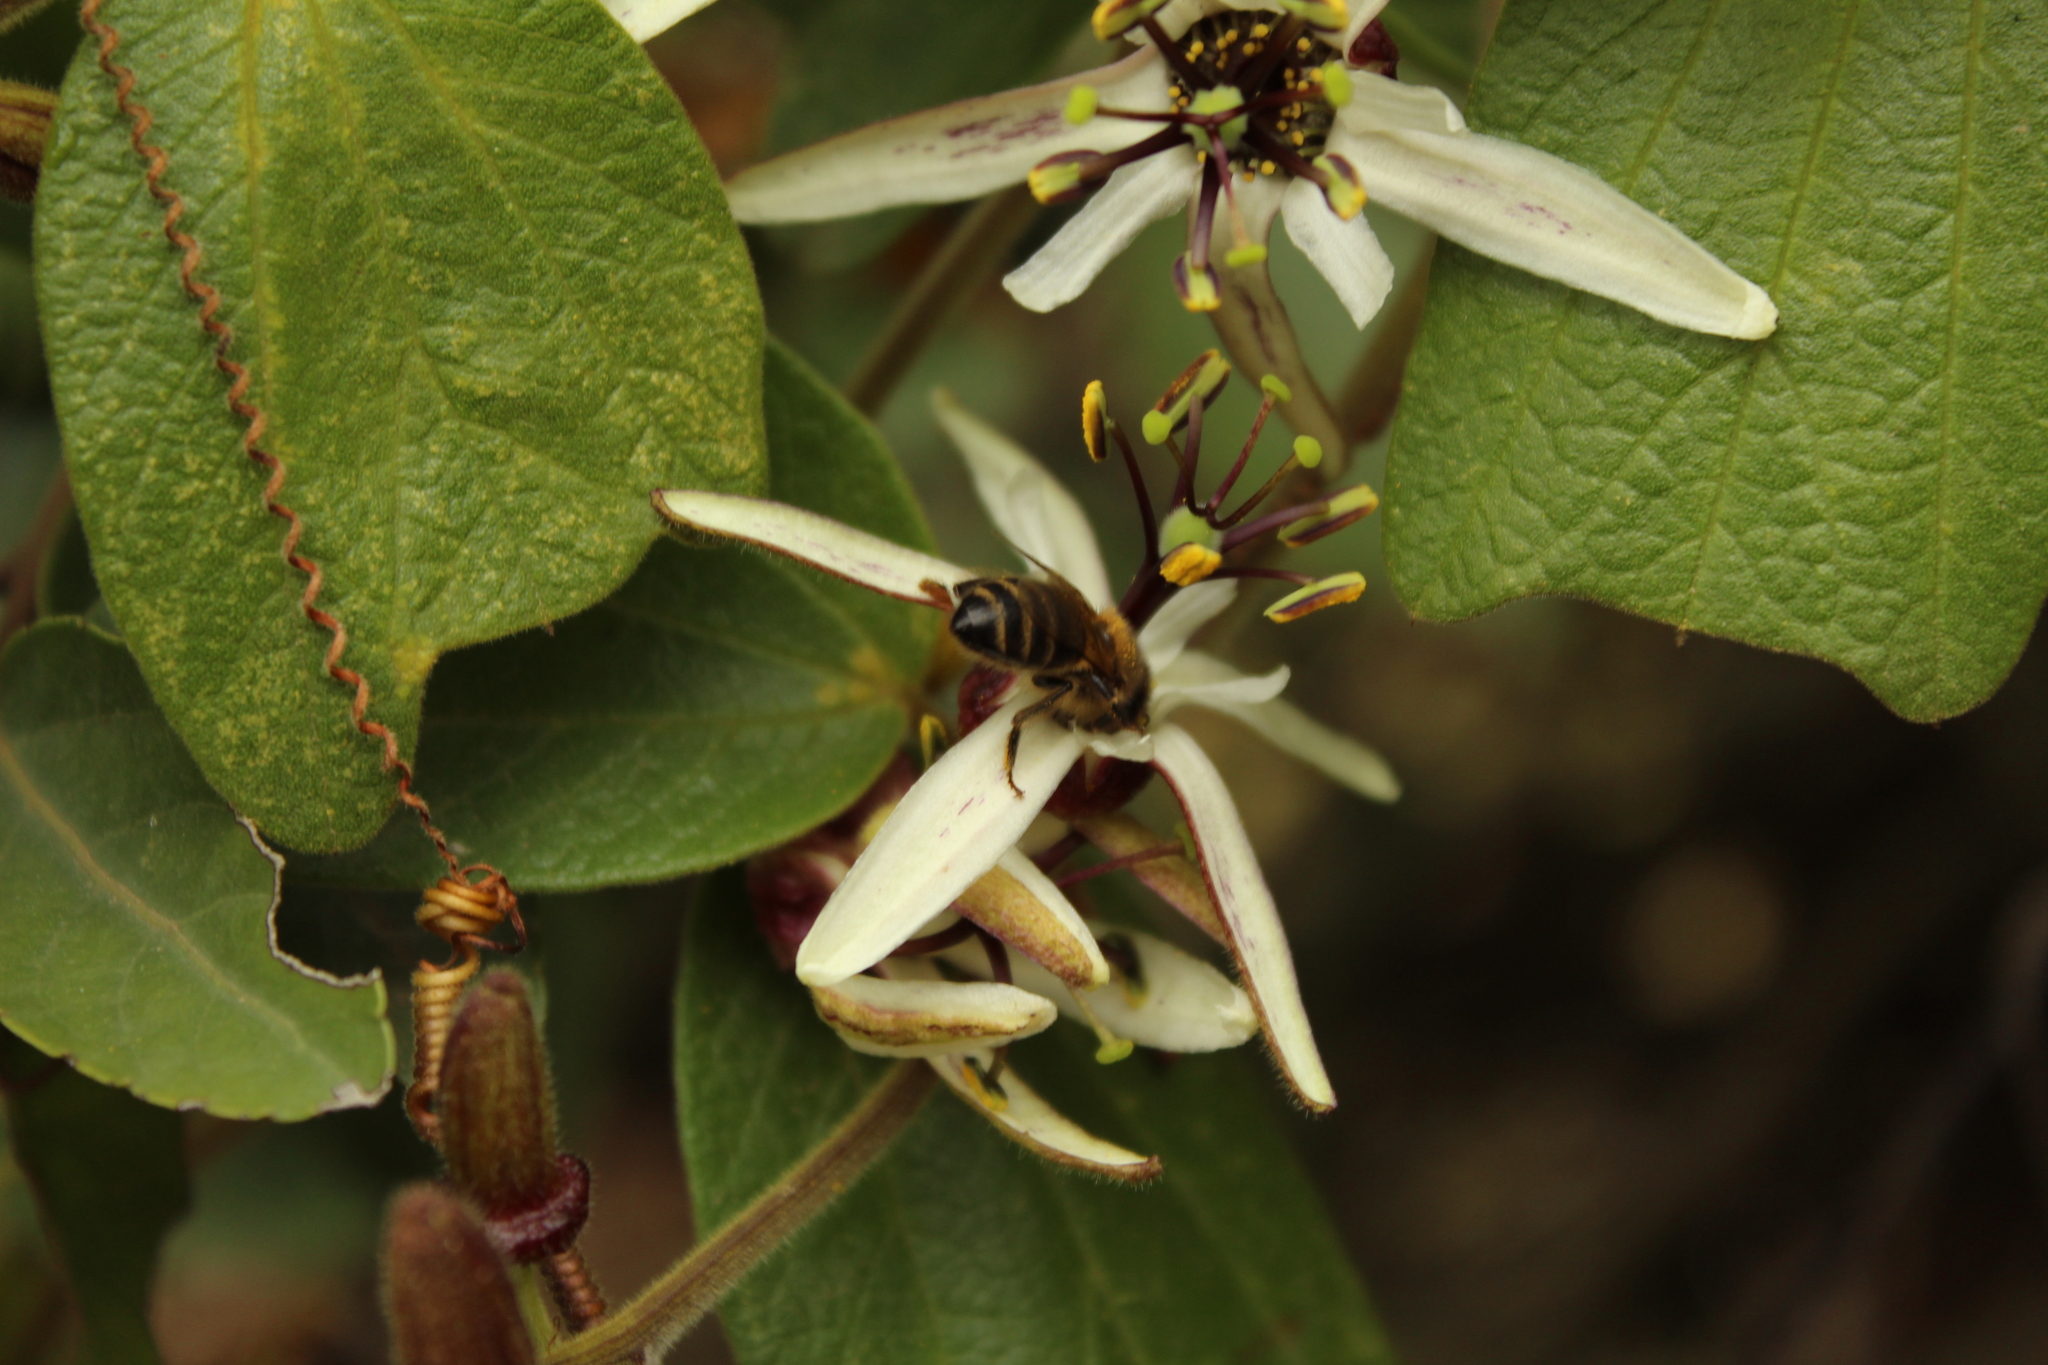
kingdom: Plantae
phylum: Tracheophyta
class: Magnoliopsida
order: Malpighiales
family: Passifloraceae
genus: Passiflora
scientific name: Passiflora bogotensis
